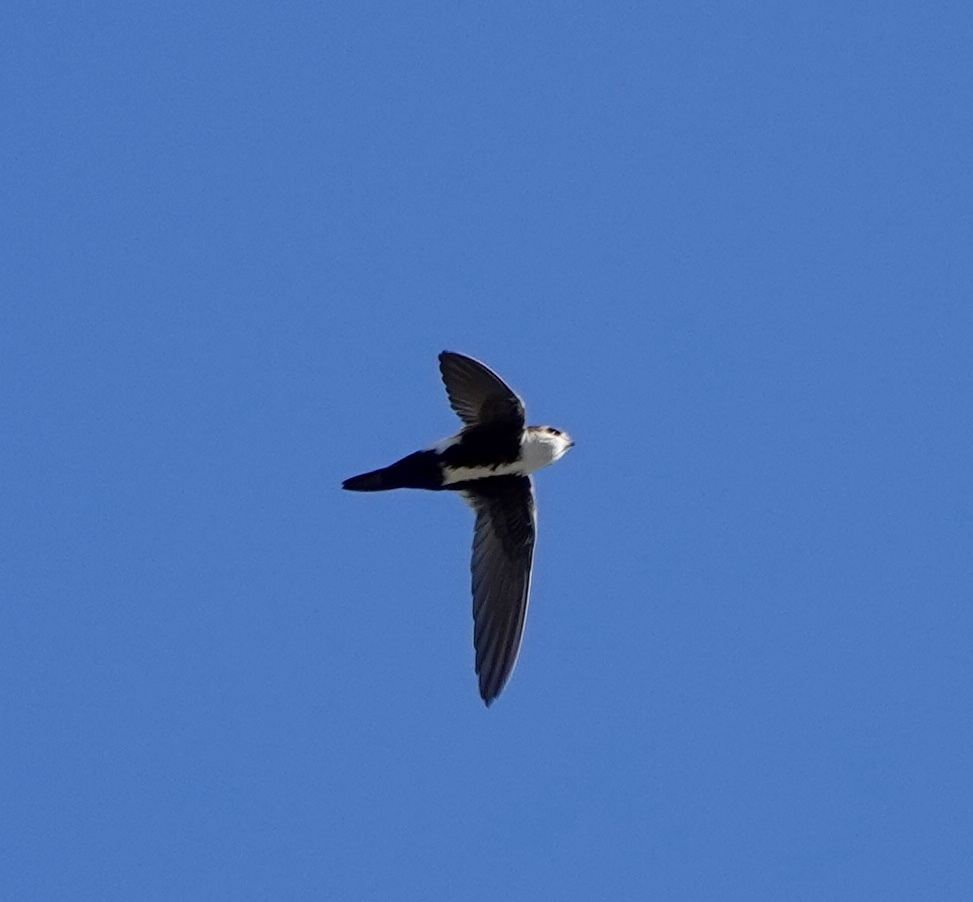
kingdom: Animalia
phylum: Chordata
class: Aves
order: Apodiformes
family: Apodidae
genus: Aeronautes
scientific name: Aeronautes saxatalis
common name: White-throated swift
